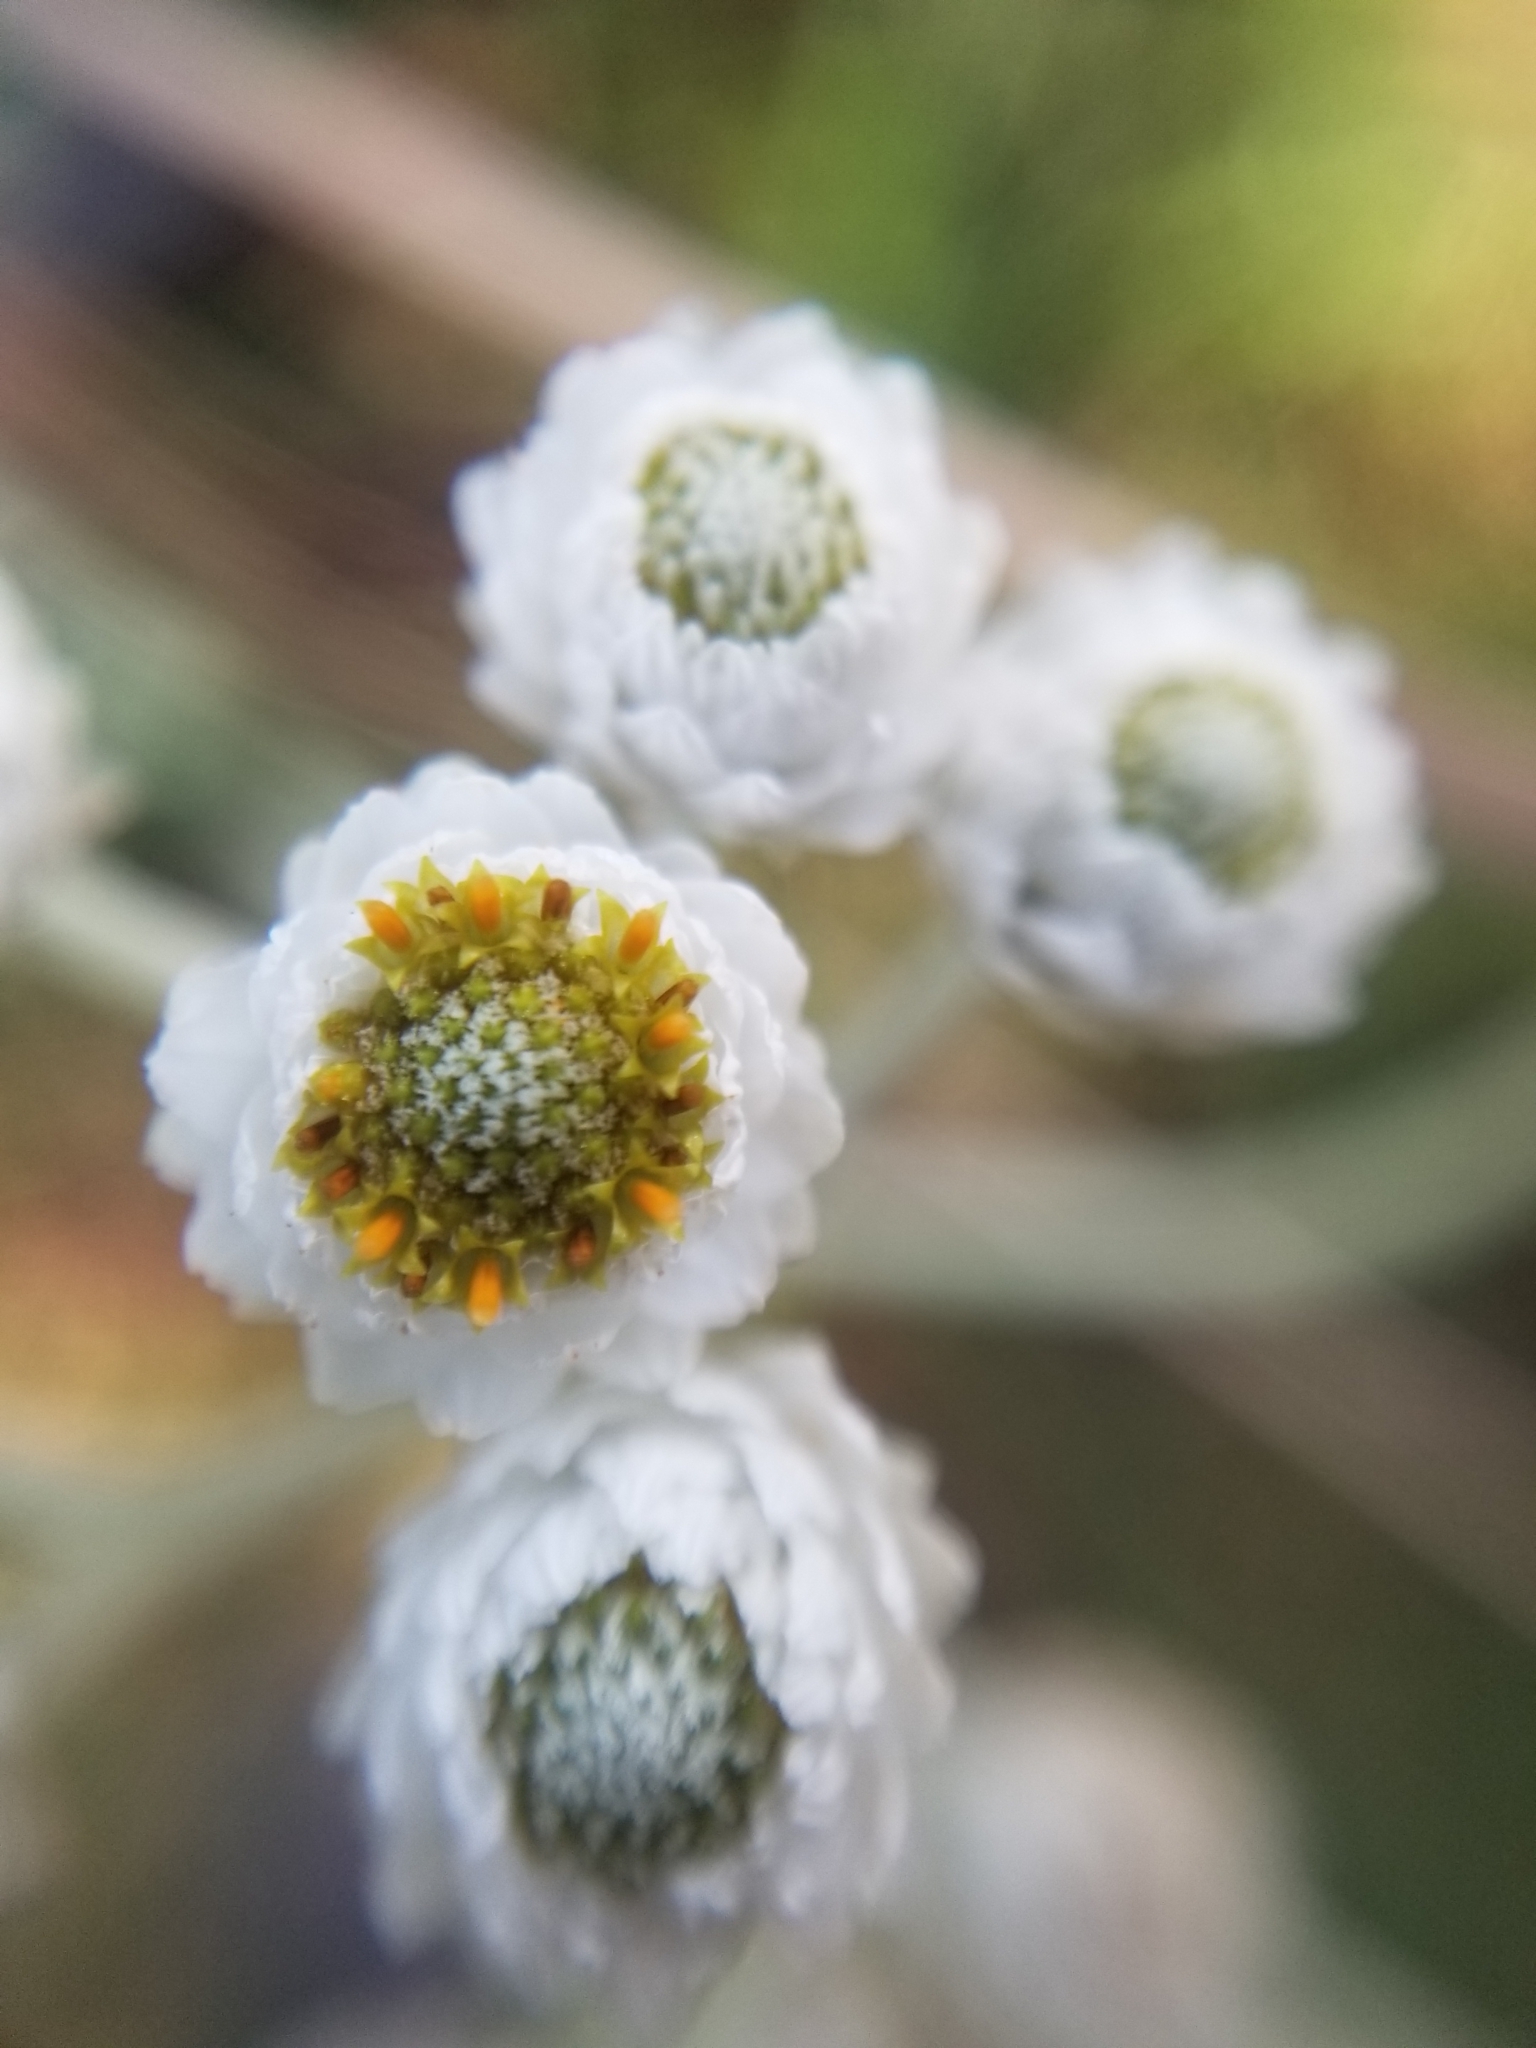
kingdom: Plantae
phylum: Tracheophyta
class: Magnoliopsida
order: Asterales
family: Asteraceae
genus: Anaphalis
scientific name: Anaphalis margaritacea
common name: Pearly everlasting
